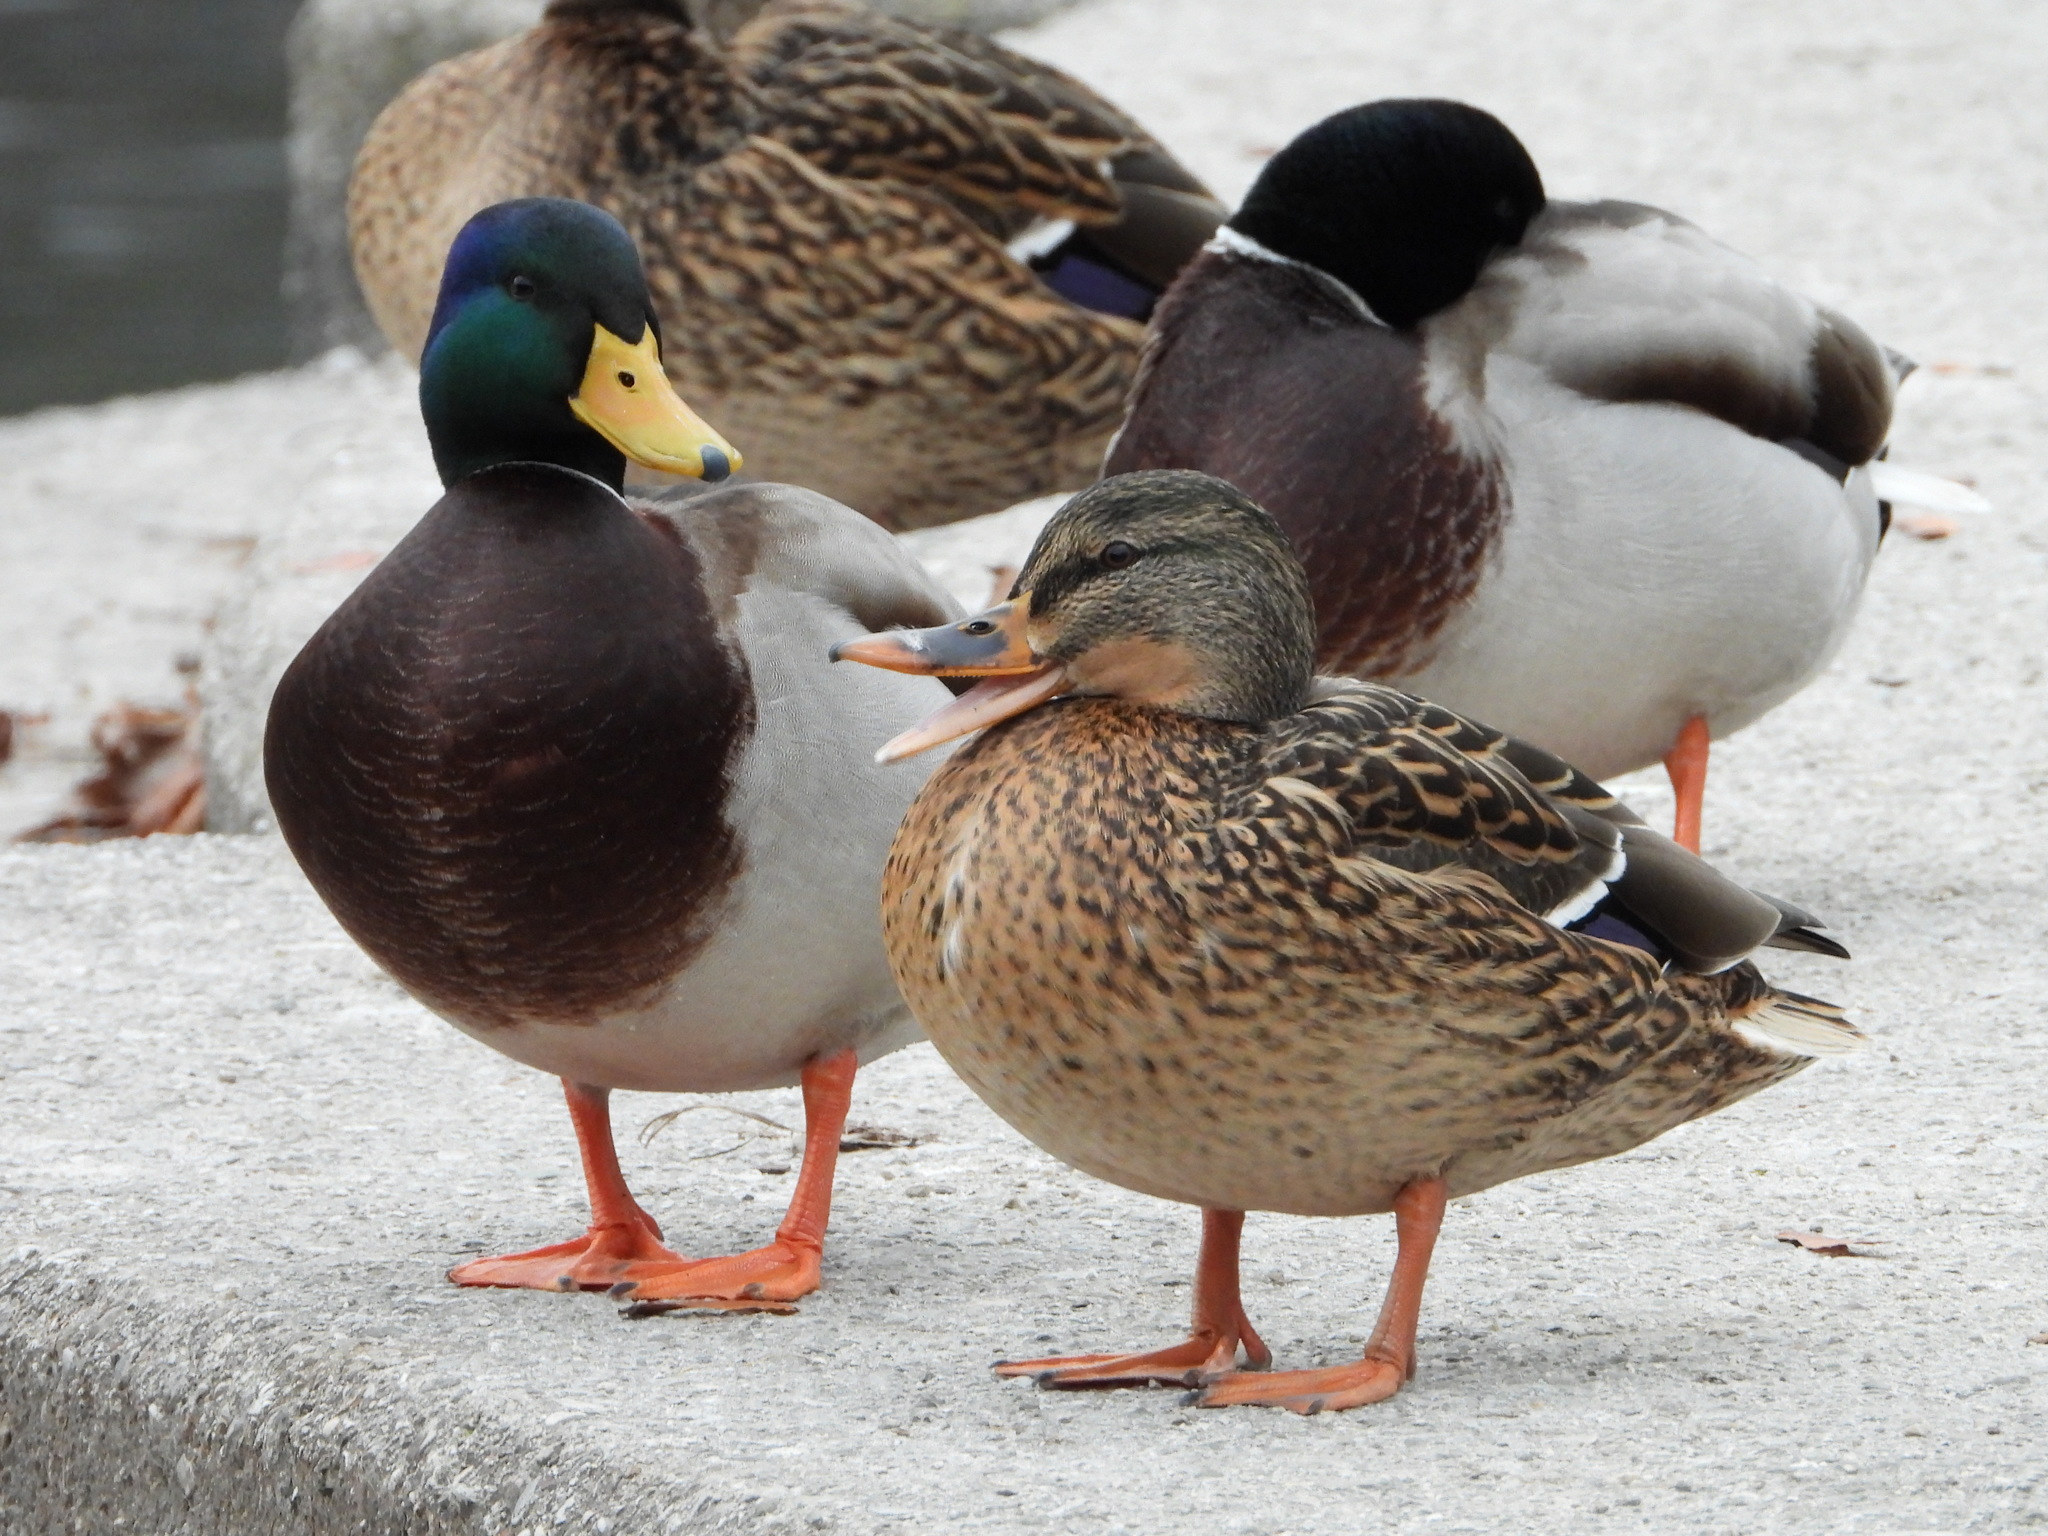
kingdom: Animalia
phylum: Chordata
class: Aves
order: Anseriformes
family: Anatidae
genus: Anas
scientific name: Anas platyrhynchos
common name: Mallard
